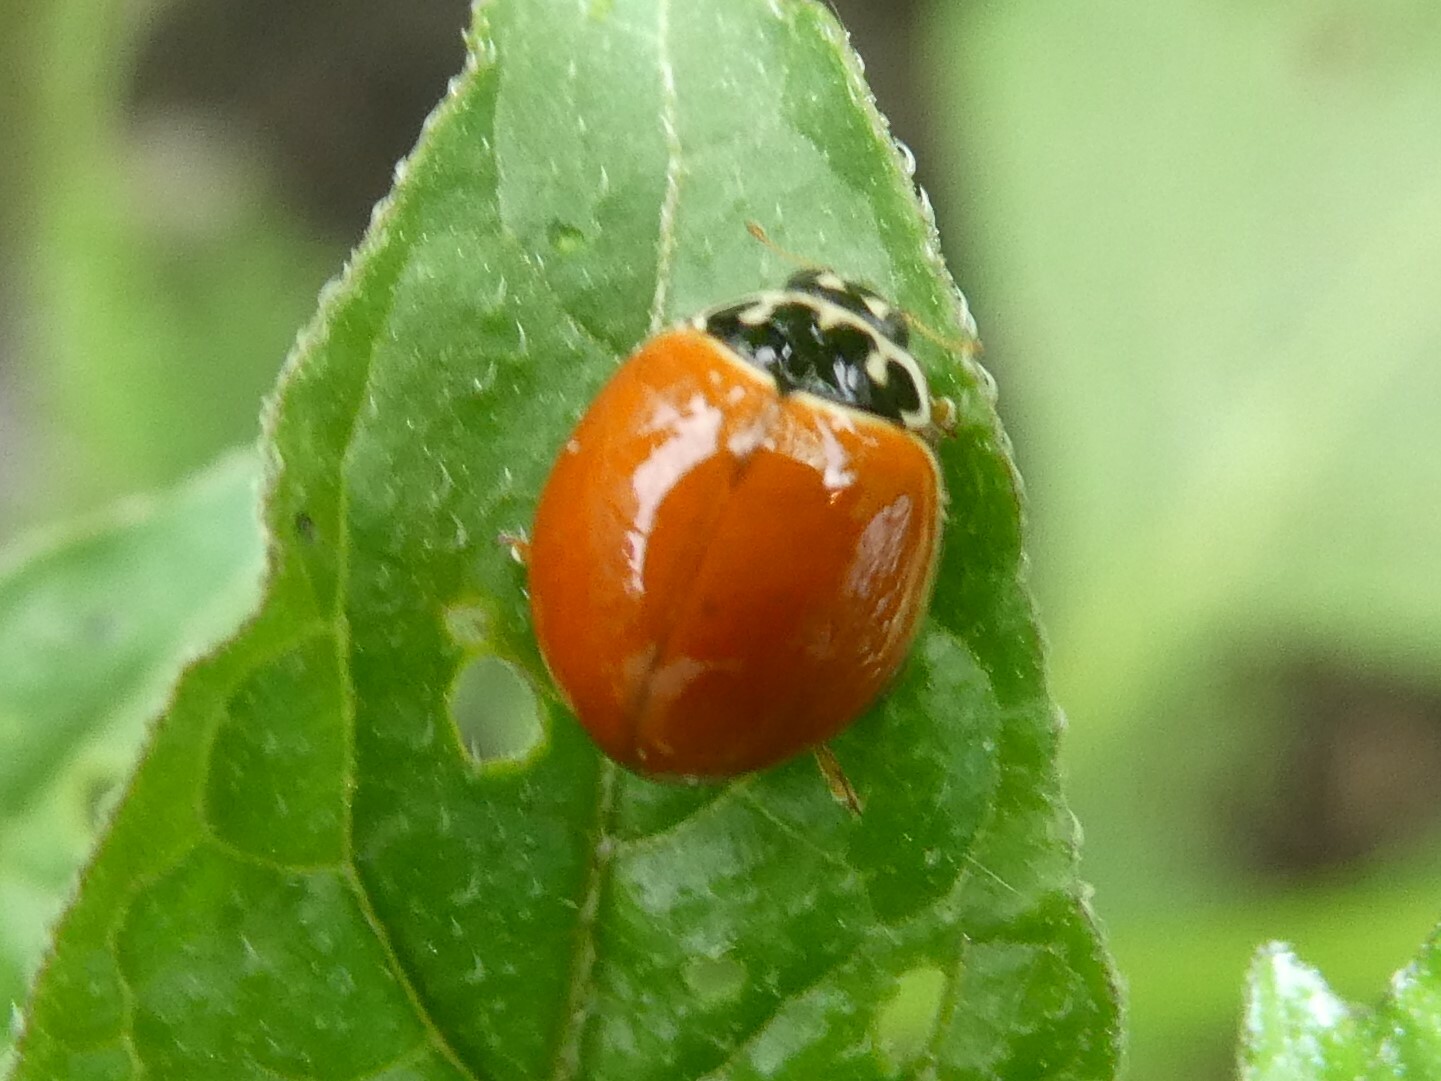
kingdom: Animalia
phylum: Arthropoda
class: Insecta
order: Coleoptera
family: Coccinellidae
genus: Cycloneda
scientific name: Cycloneda munda
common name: Polished lady beetle
